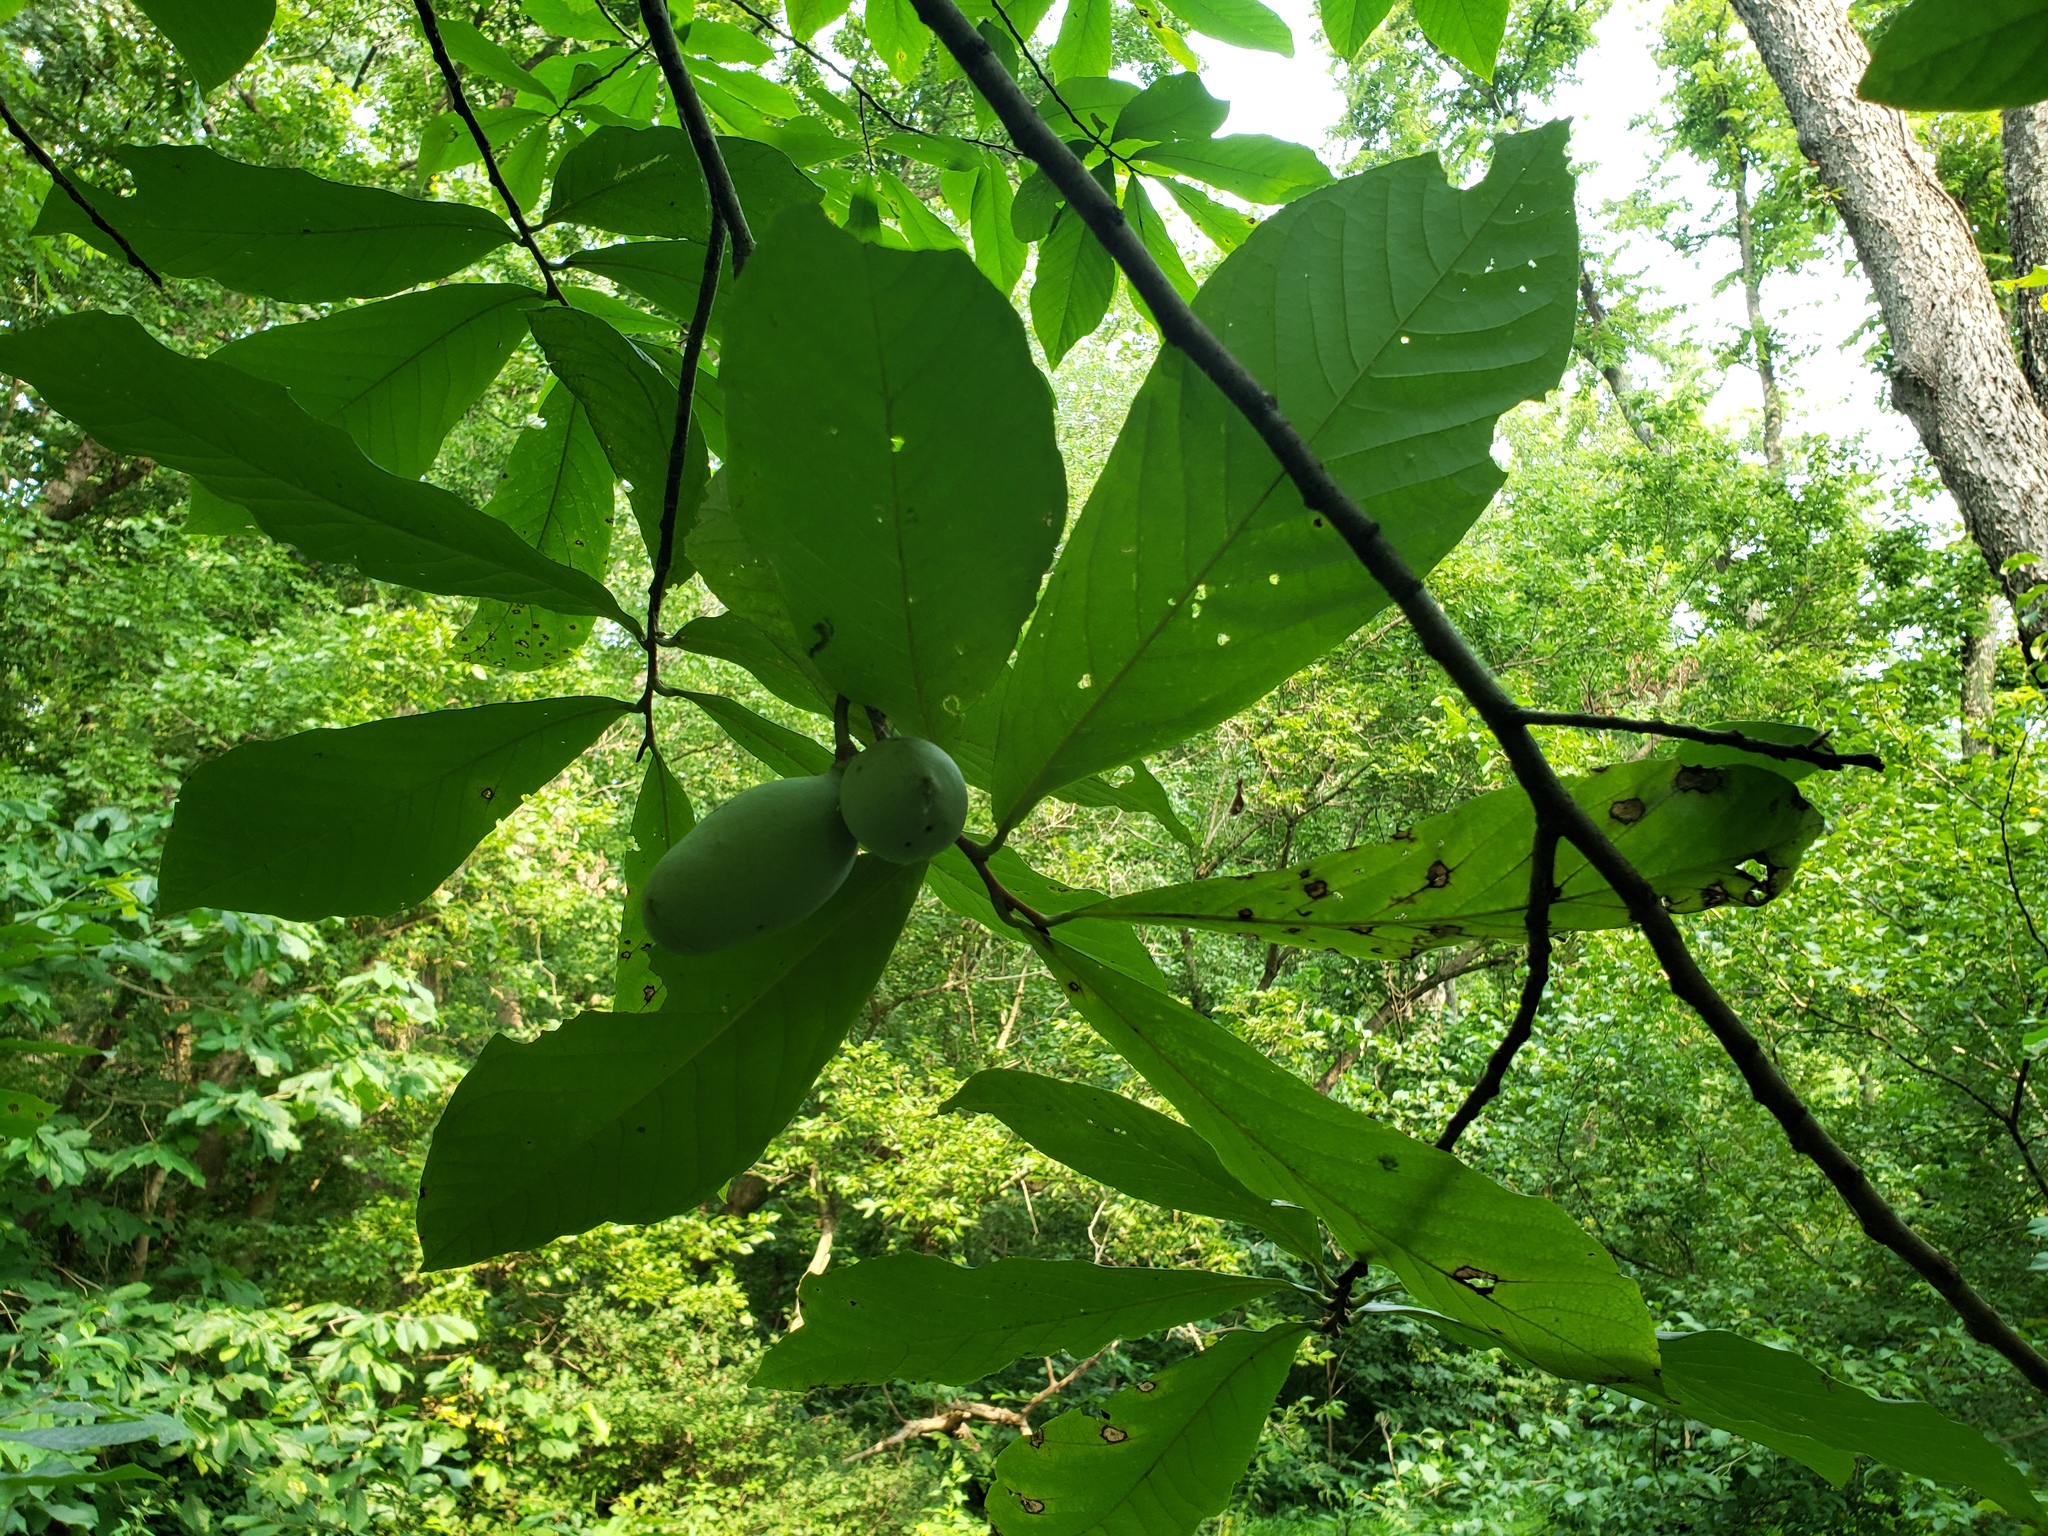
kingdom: Plantae
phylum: Tracheophyta
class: Magnoliopsida
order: Magnoliales
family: Annonaceae
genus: Asimina
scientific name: Asimina triloba
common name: Dog-banana
